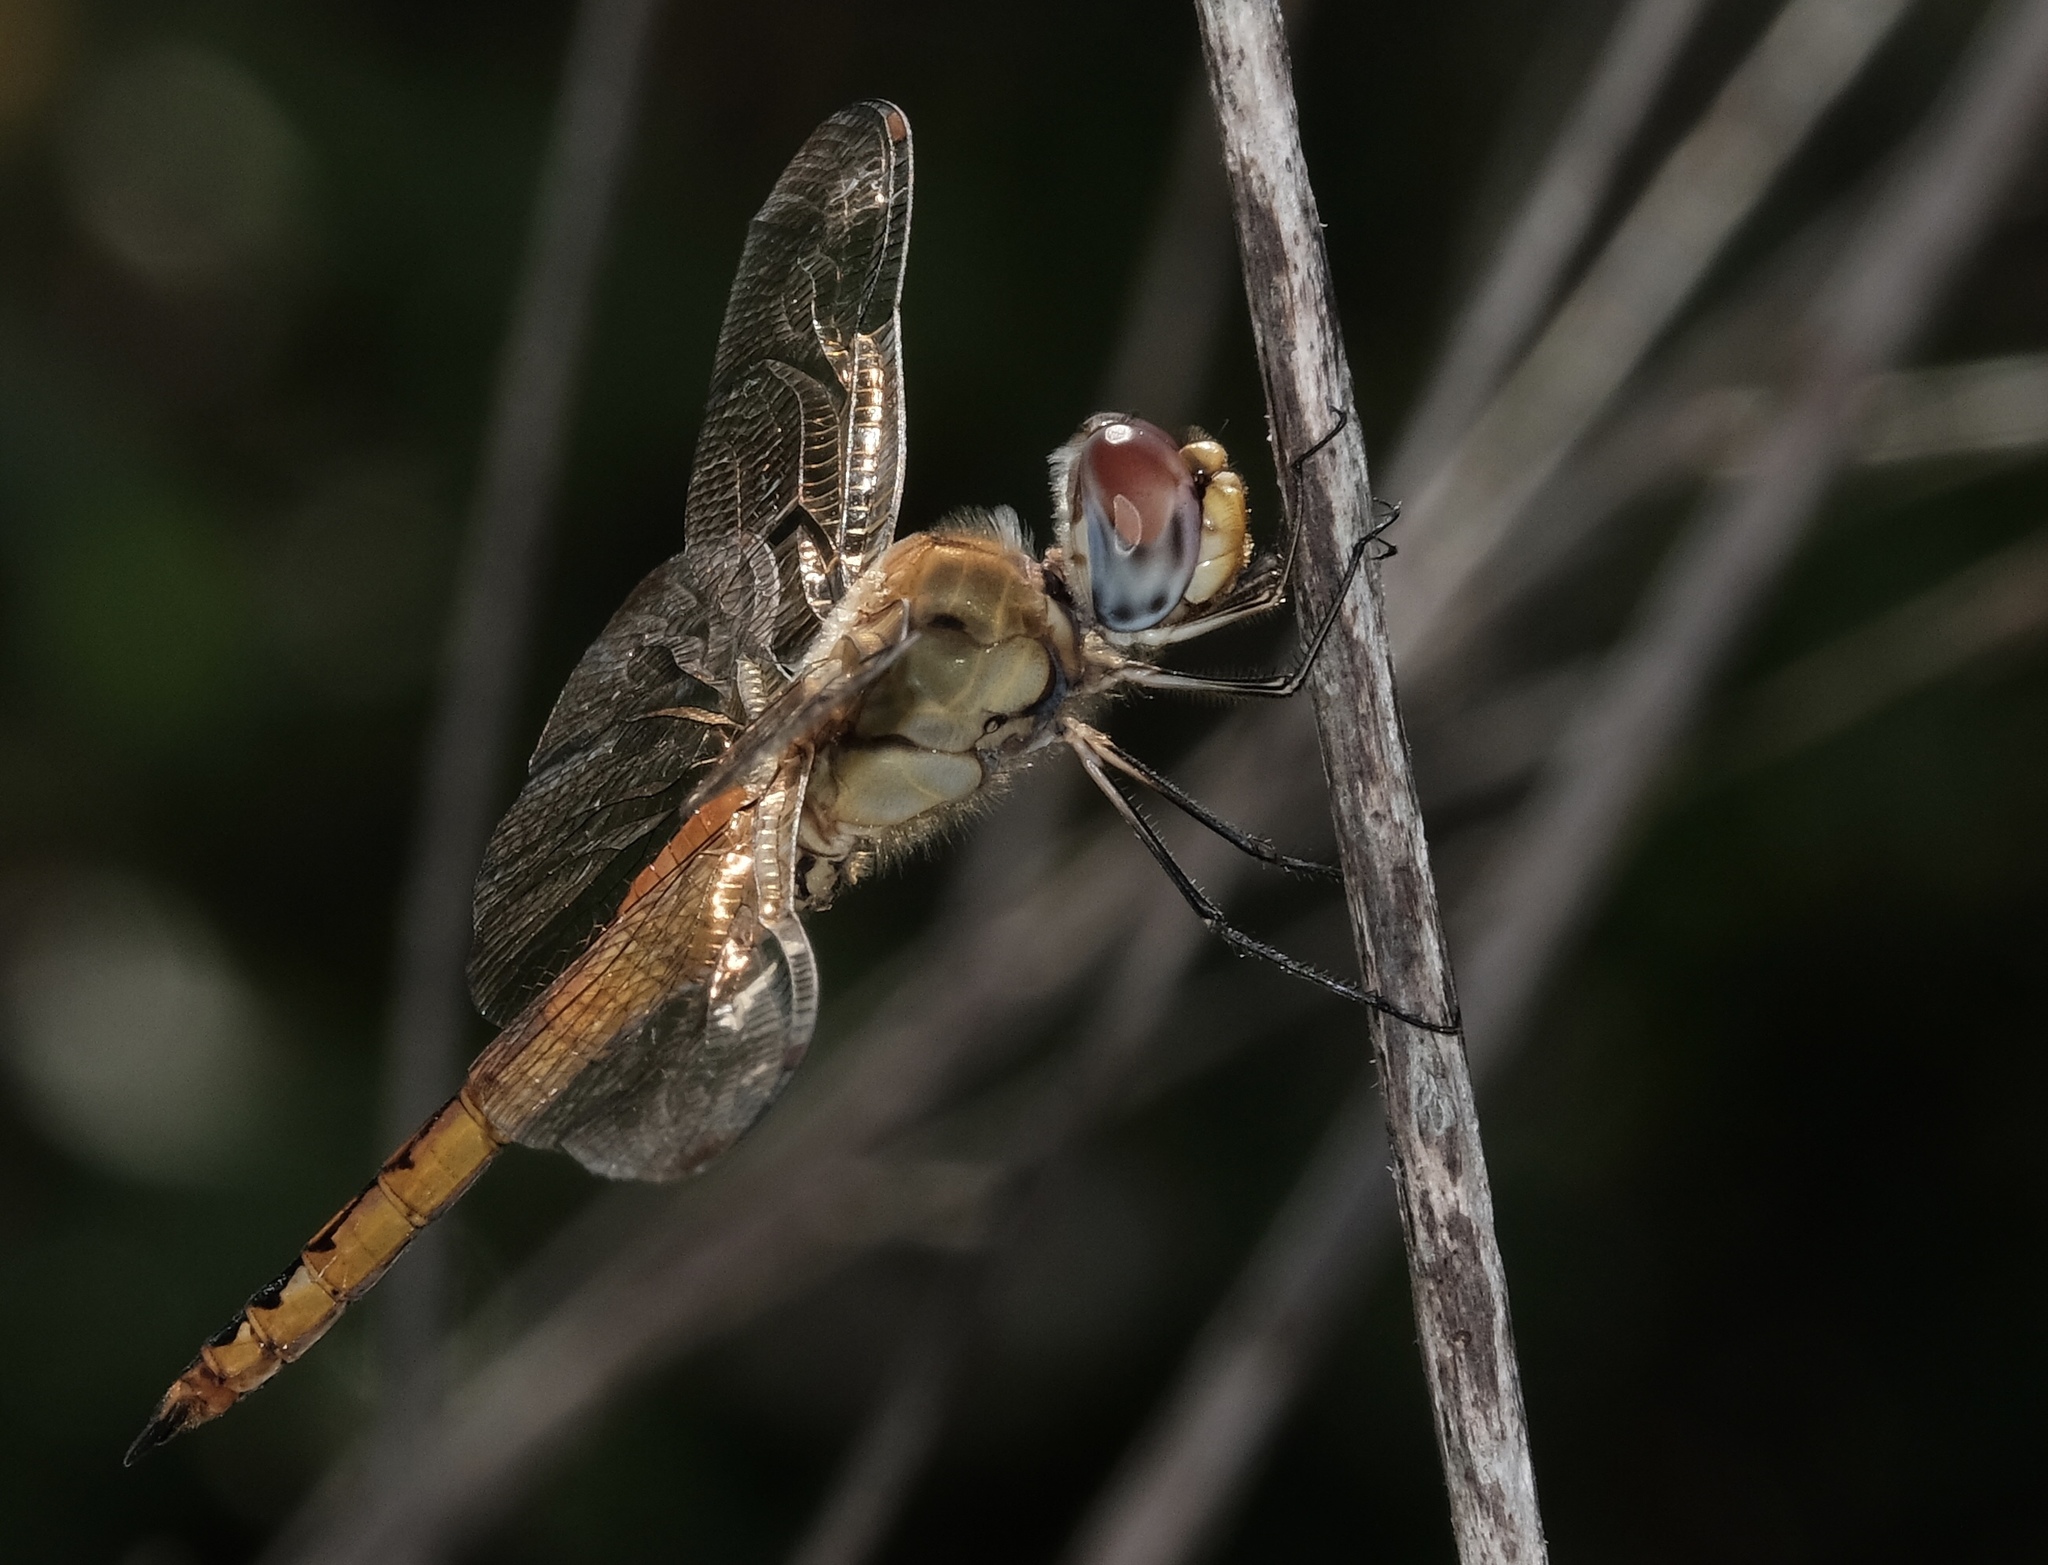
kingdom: Animalia
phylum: Arthropoda
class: Insecta
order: Odonata
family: Libellulidae
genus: Pantala
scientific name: Pantala flavescens
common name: Wandering glider
